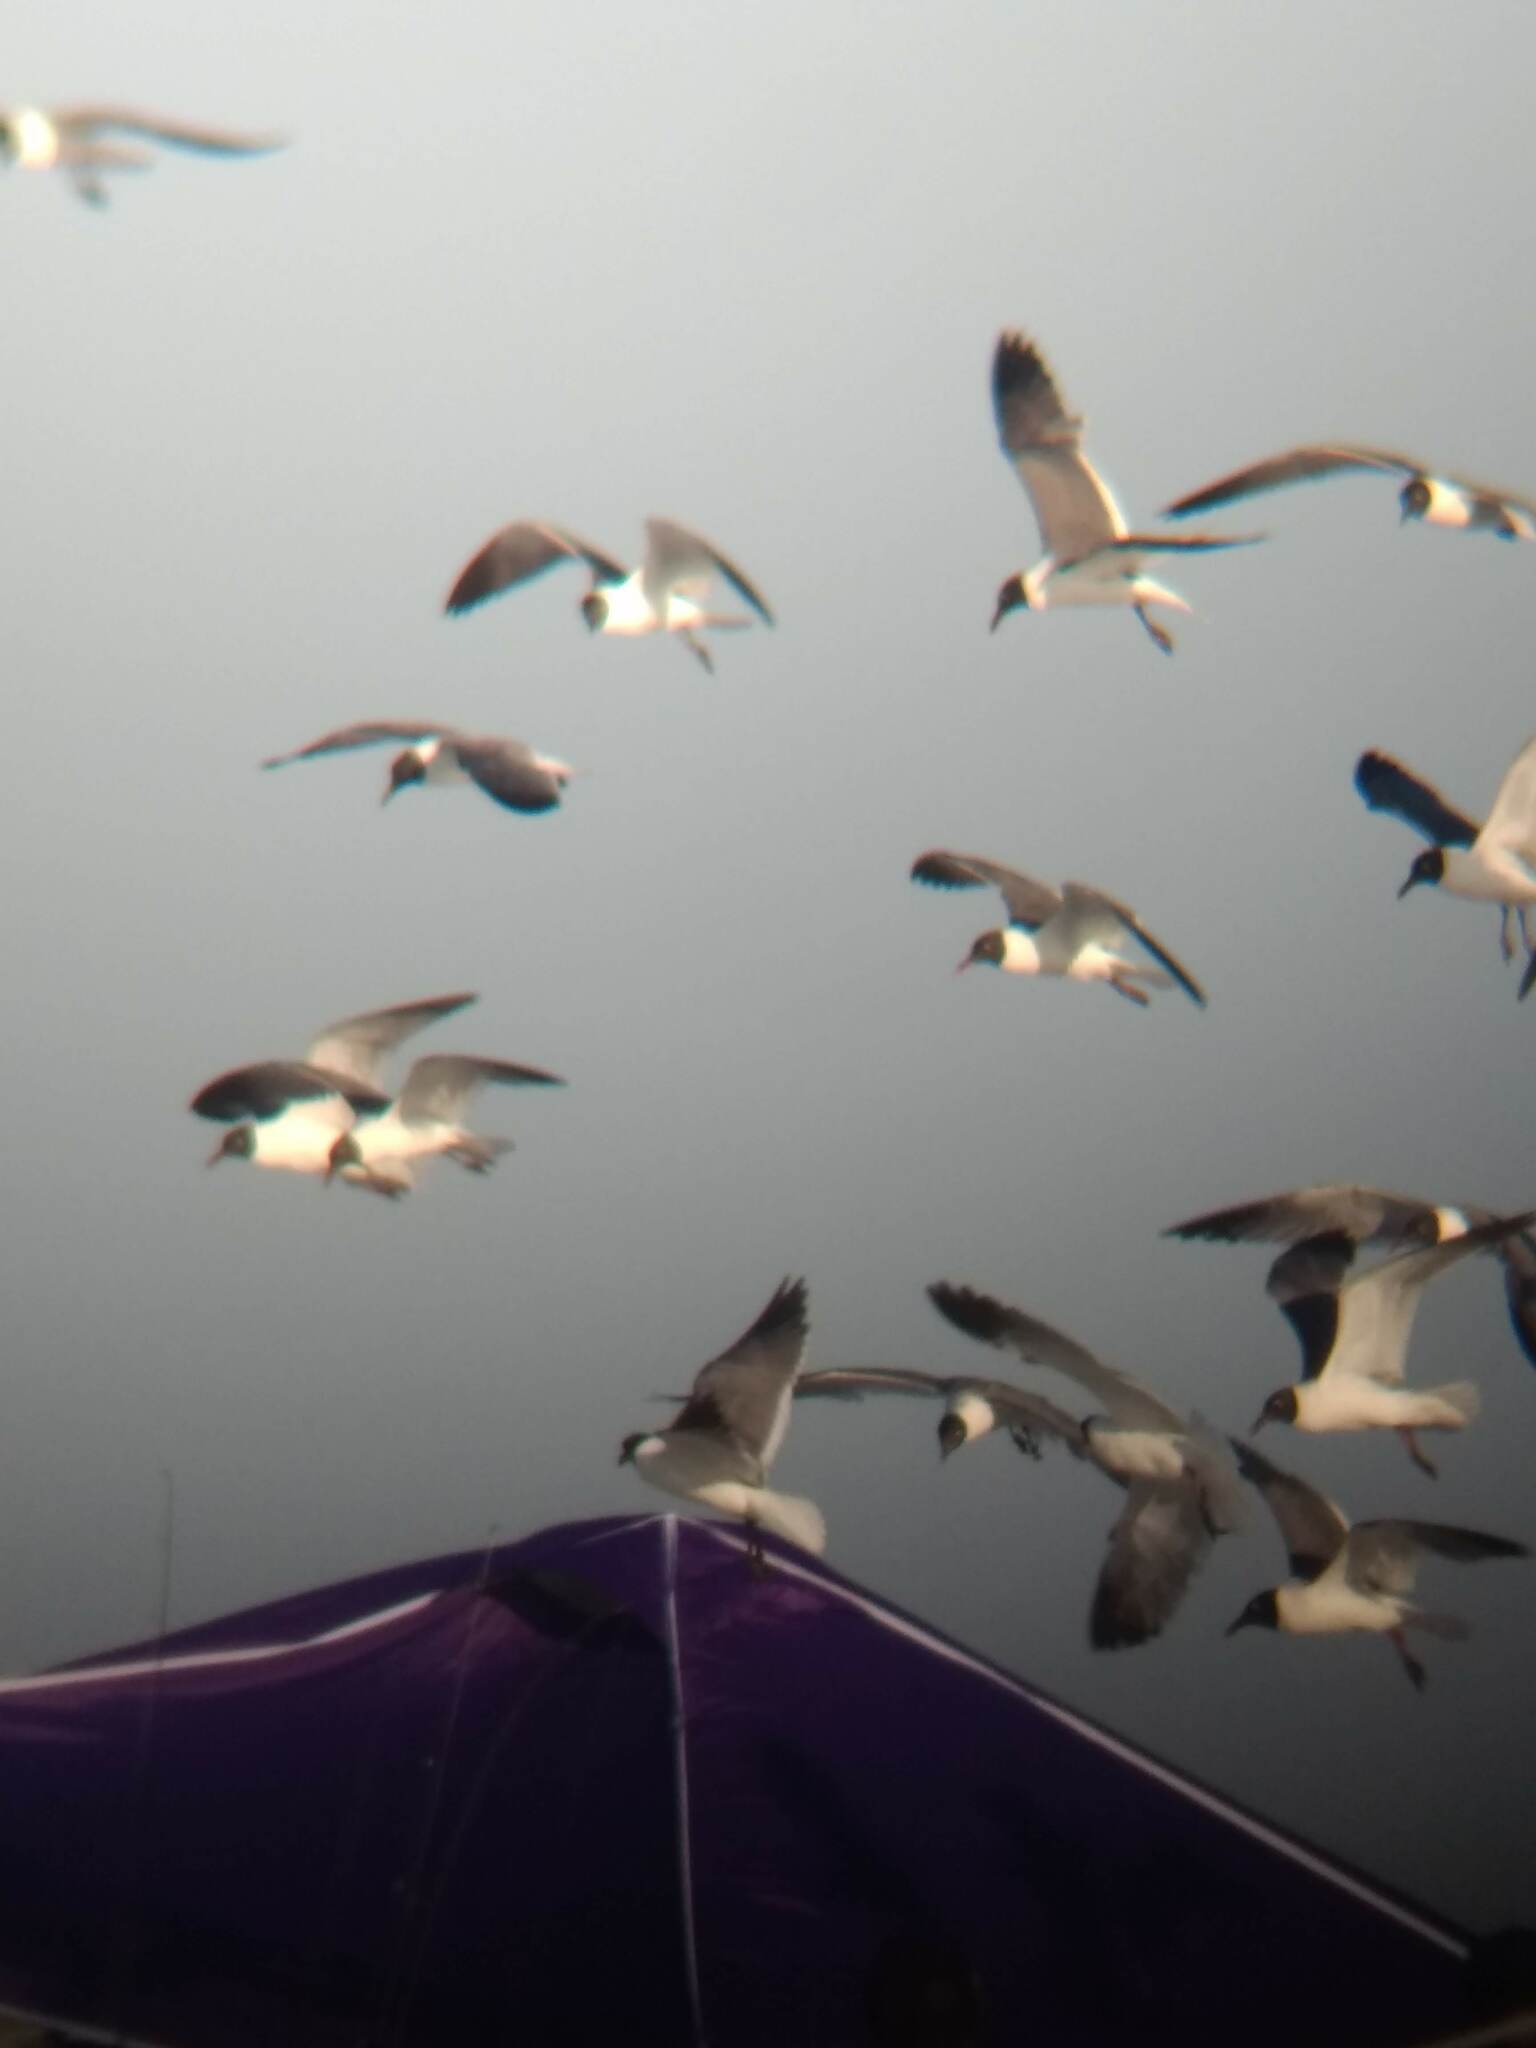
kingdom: Animalia
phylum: Chordata
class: Aves
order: Charadriiformes
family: Laridae
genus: Leucophaeus
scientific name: Leucophaeus atricilla
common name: Laughing gull
